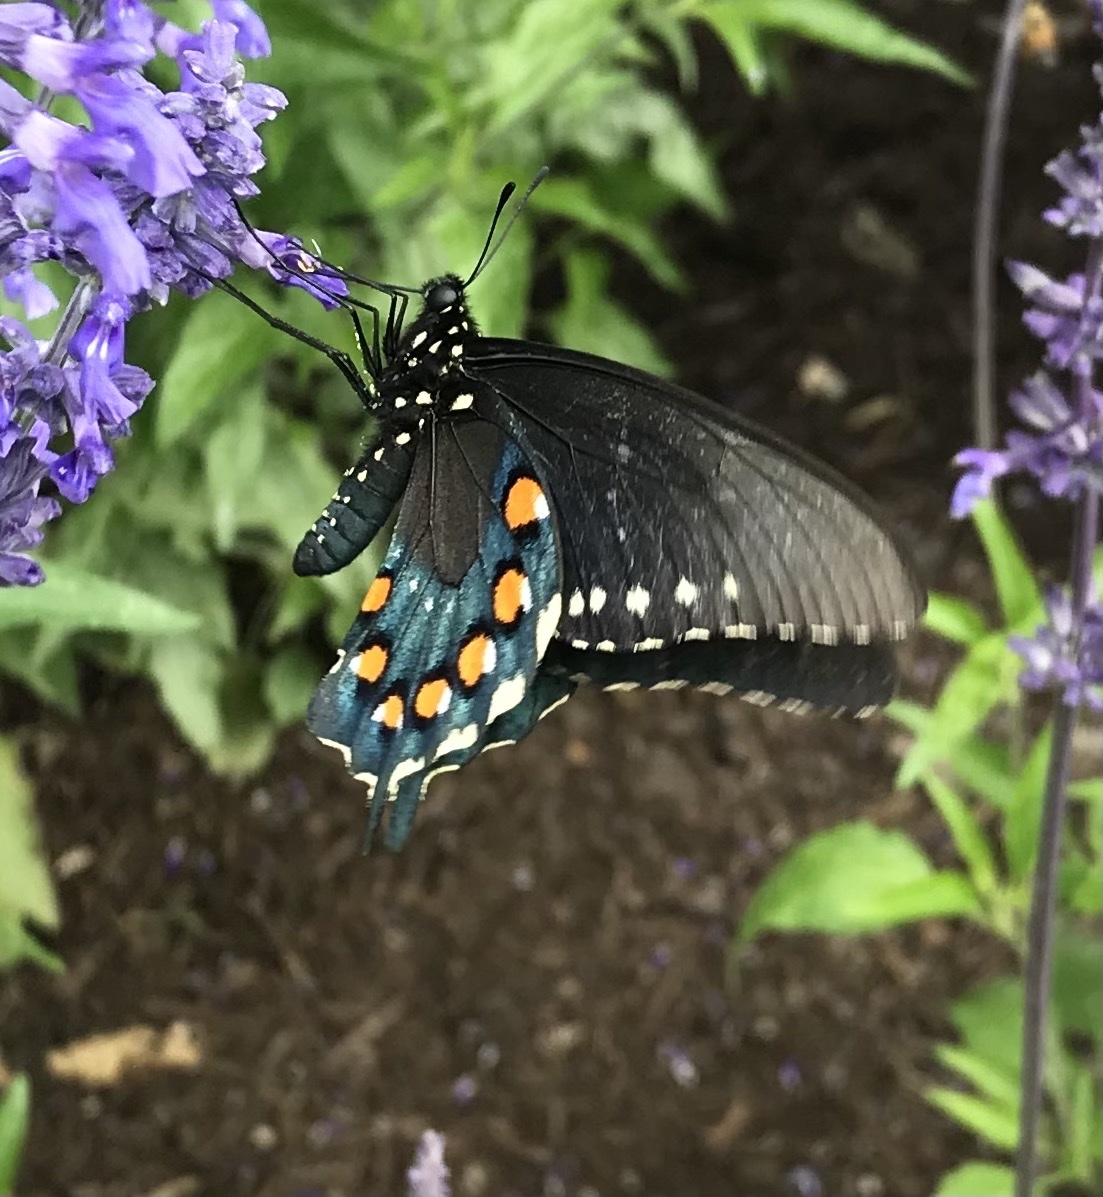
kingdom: Animalia
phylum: Arthropoda
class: Insecta
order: Lepidoptera
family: Papilionidae
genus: Battus
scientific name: Battus philenor
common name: Pipevine swallowtail
